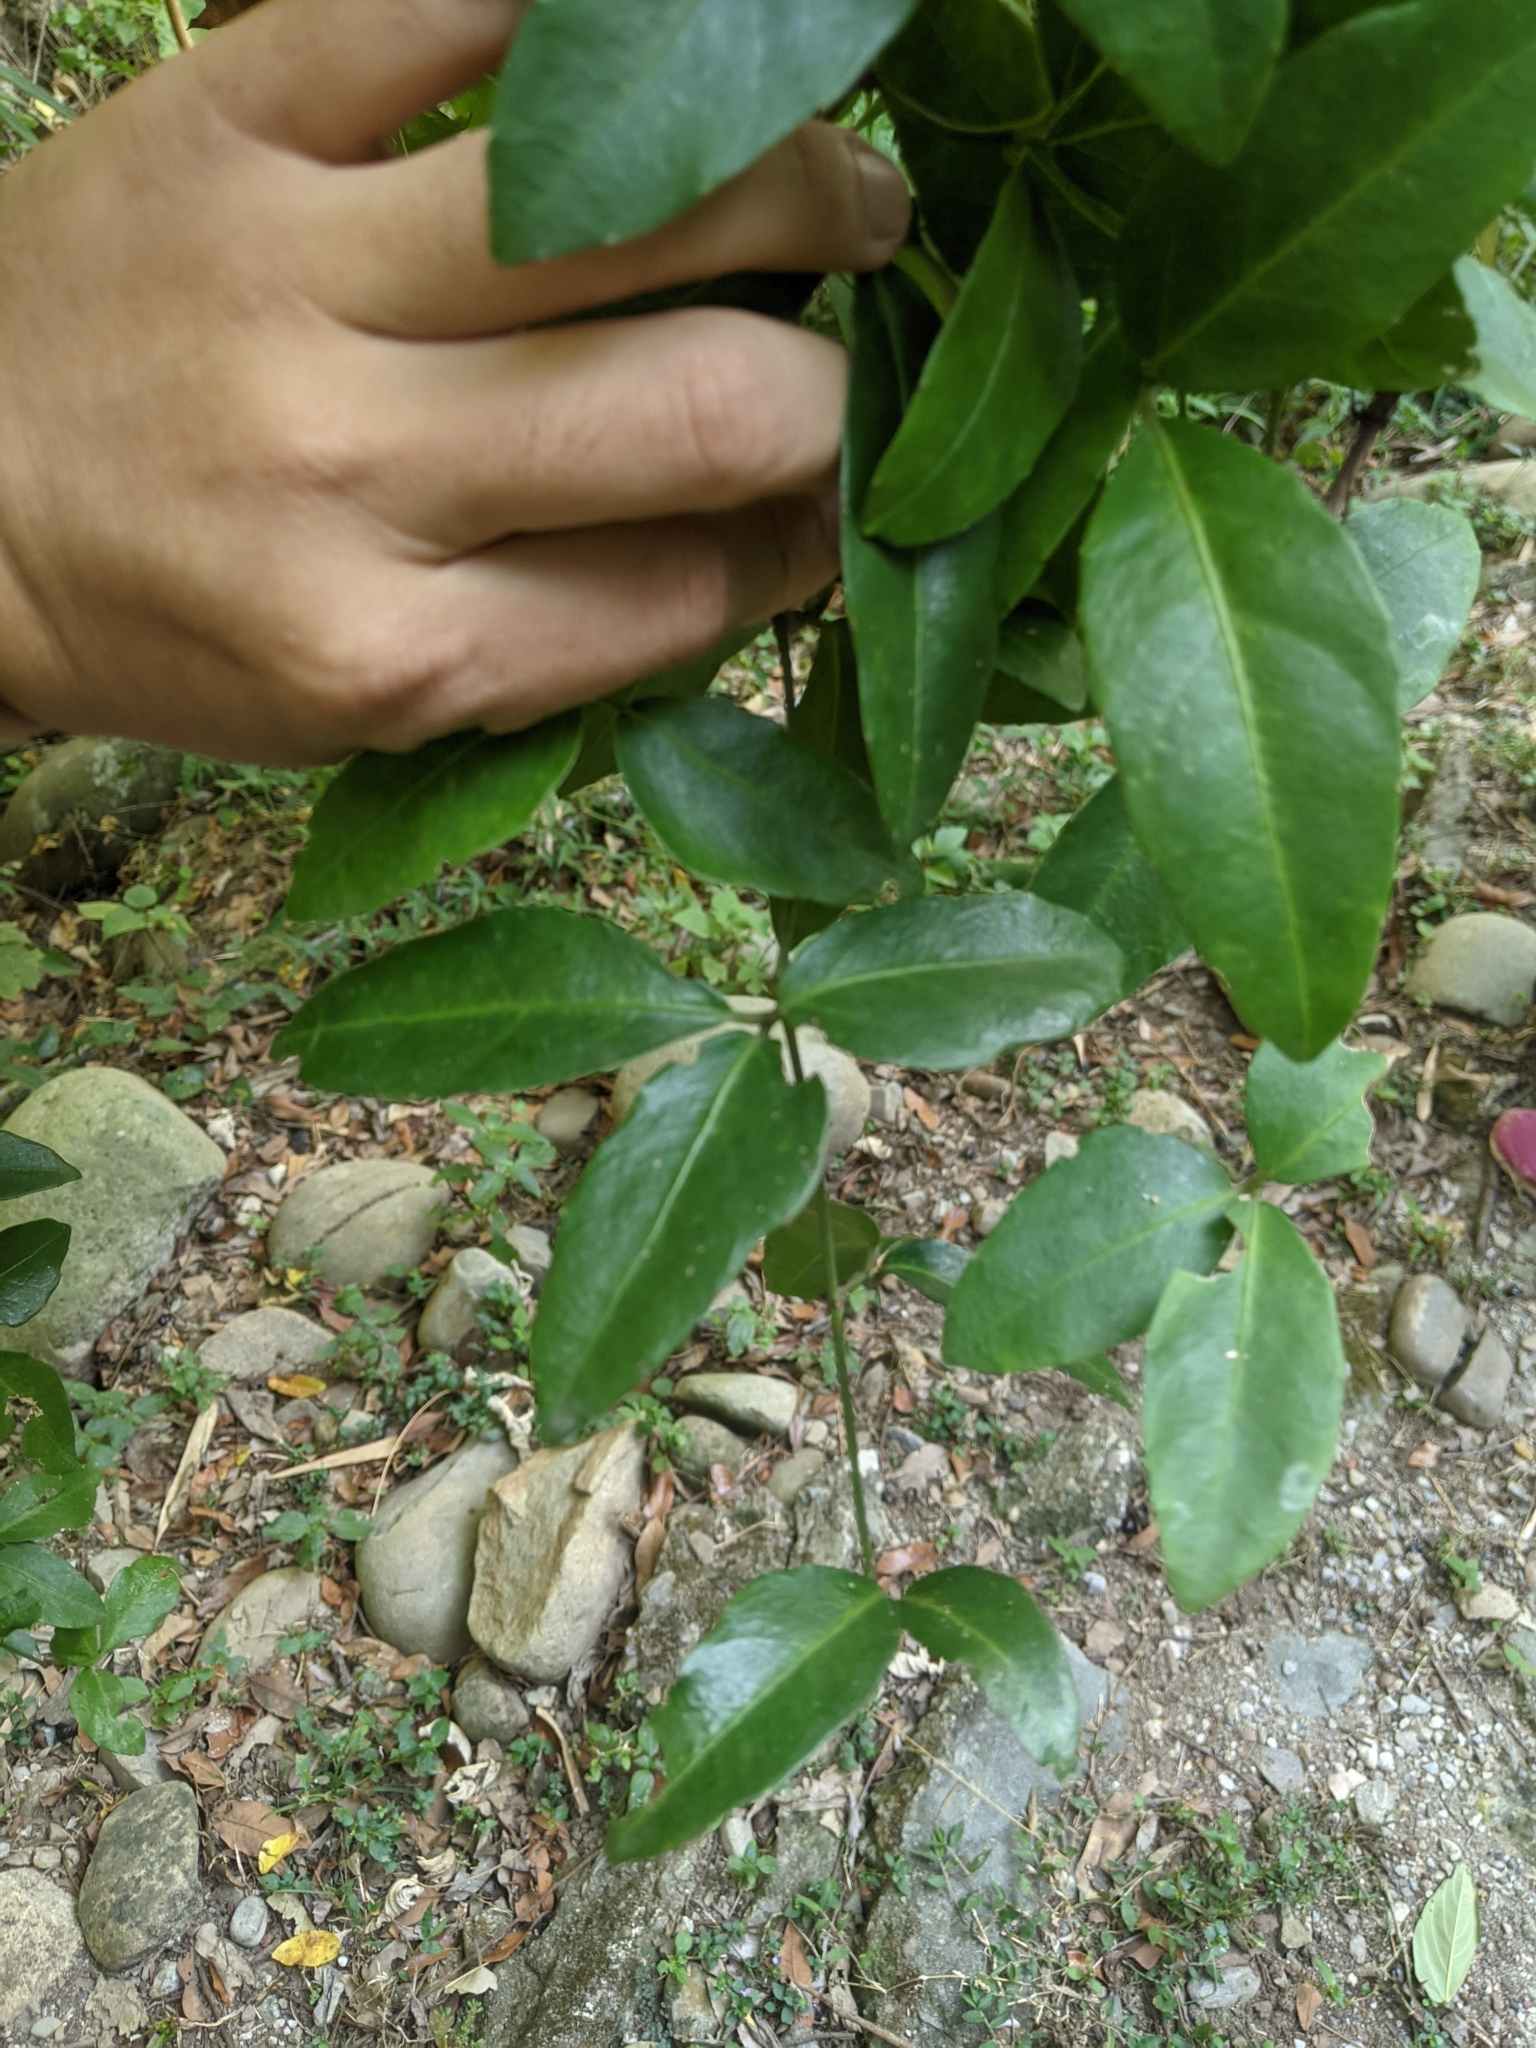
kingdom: Plantae
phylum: Tracheophyta
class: Magnoliopsida
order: Vitales
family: Vitaceae
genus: Tetrastigma
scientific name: Tetrastigma formosanum
